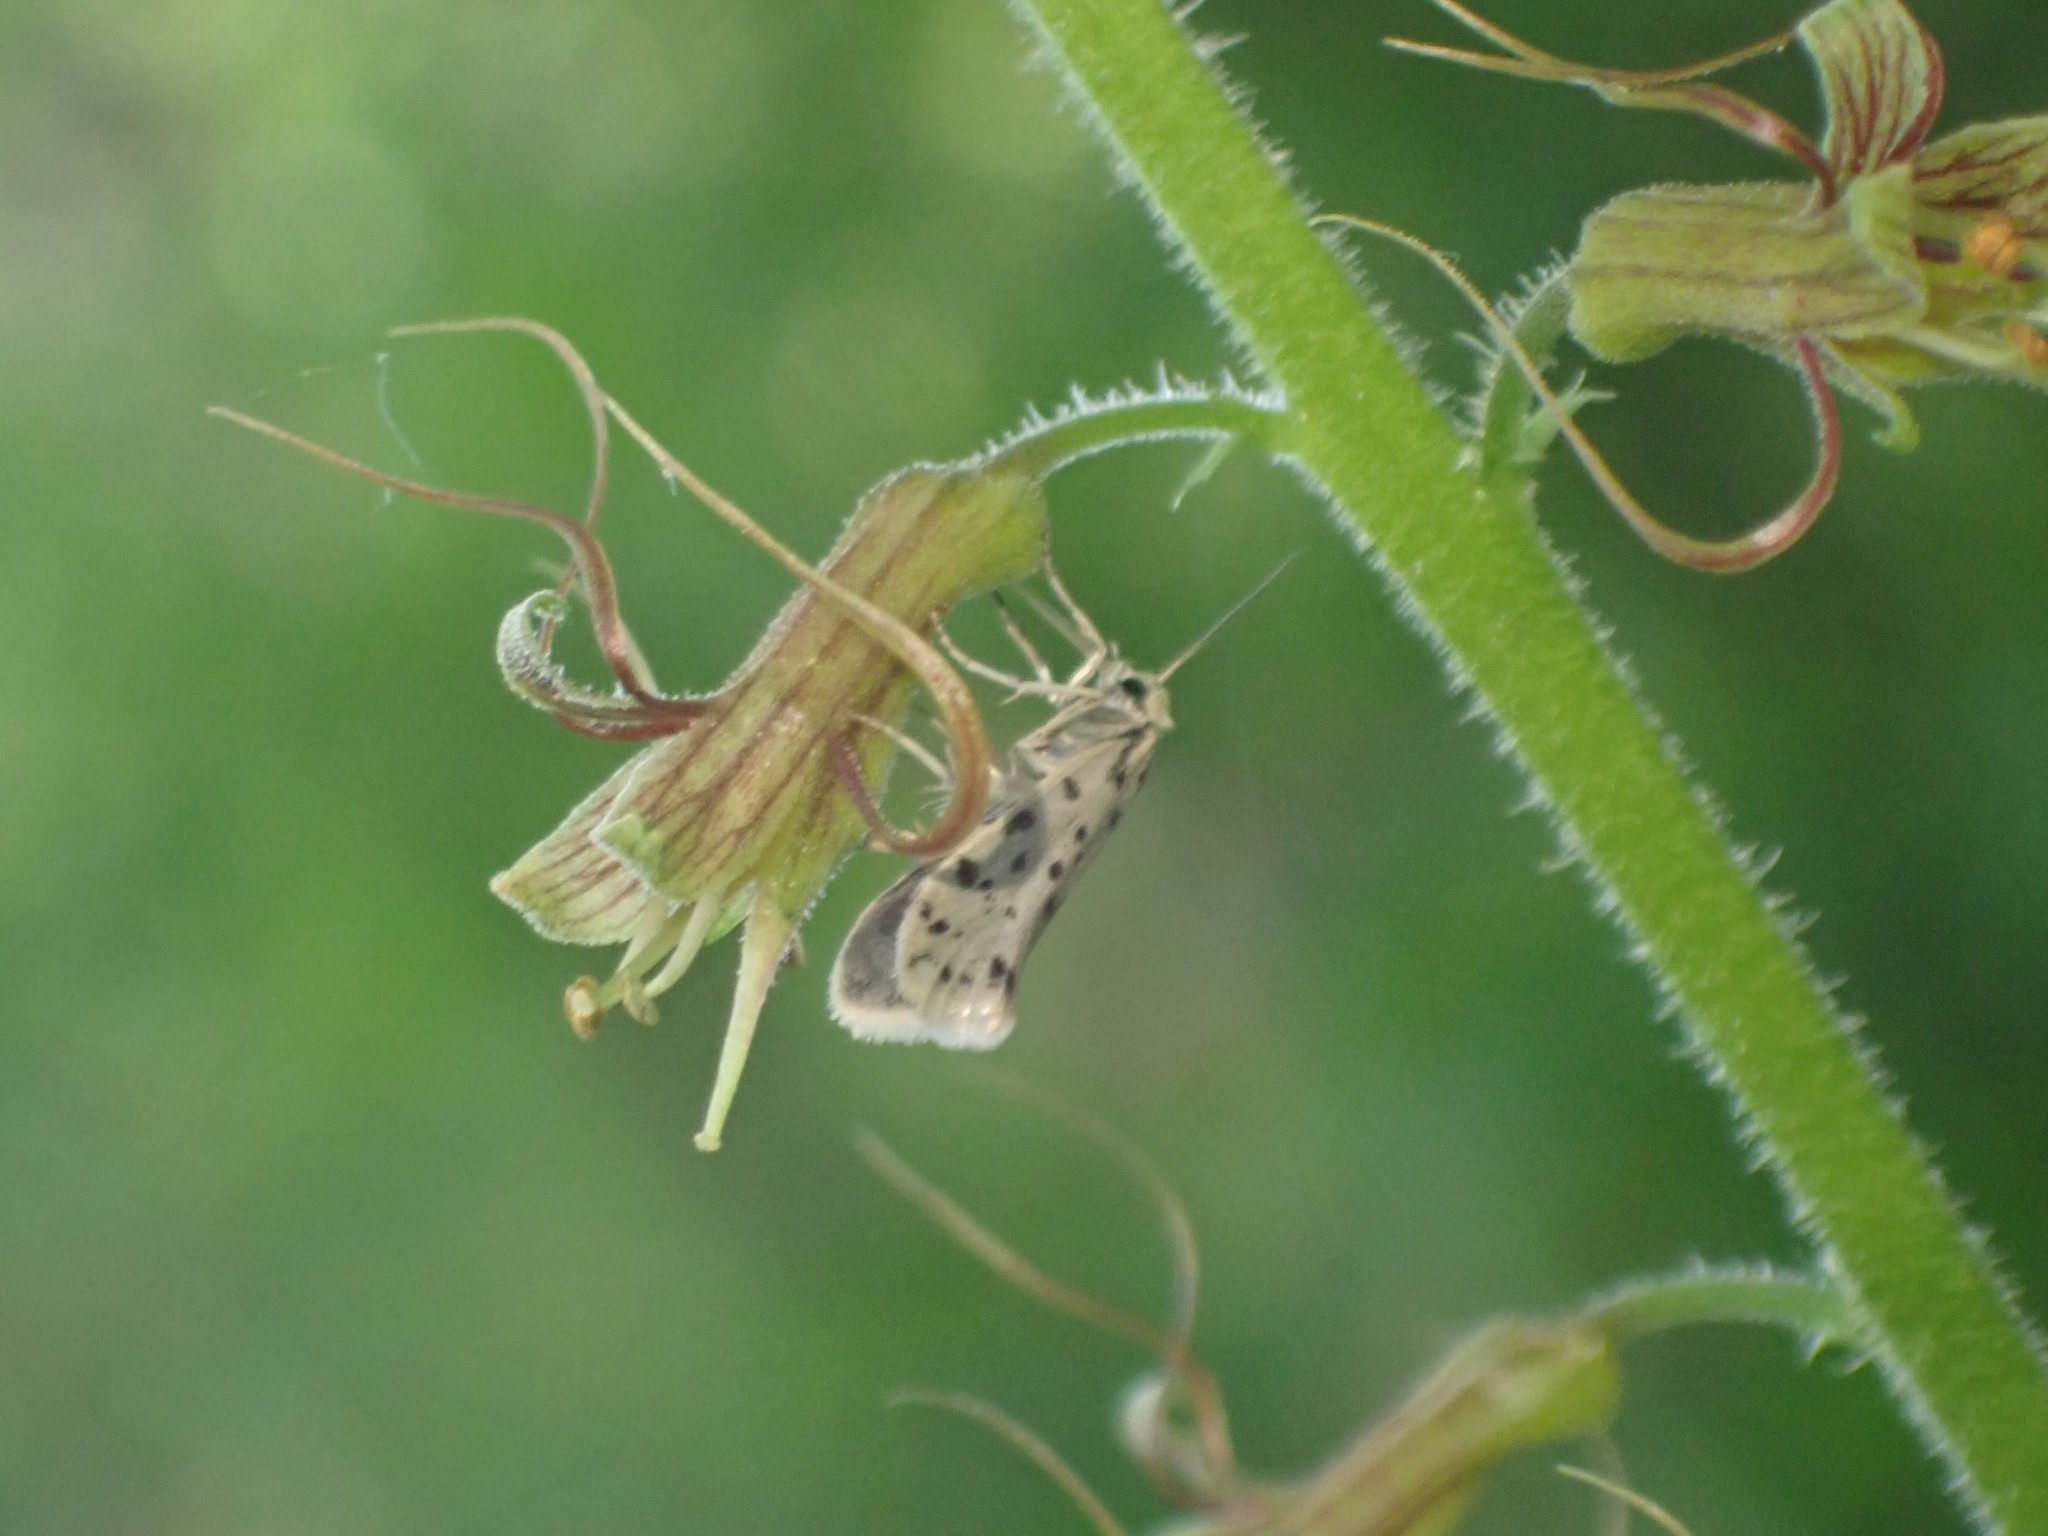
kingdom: Animalia
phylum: Arthropoda
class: Insecta
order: Lepidoptera
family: Prodoxidae
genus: Greya
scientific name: Greya punctiferella
